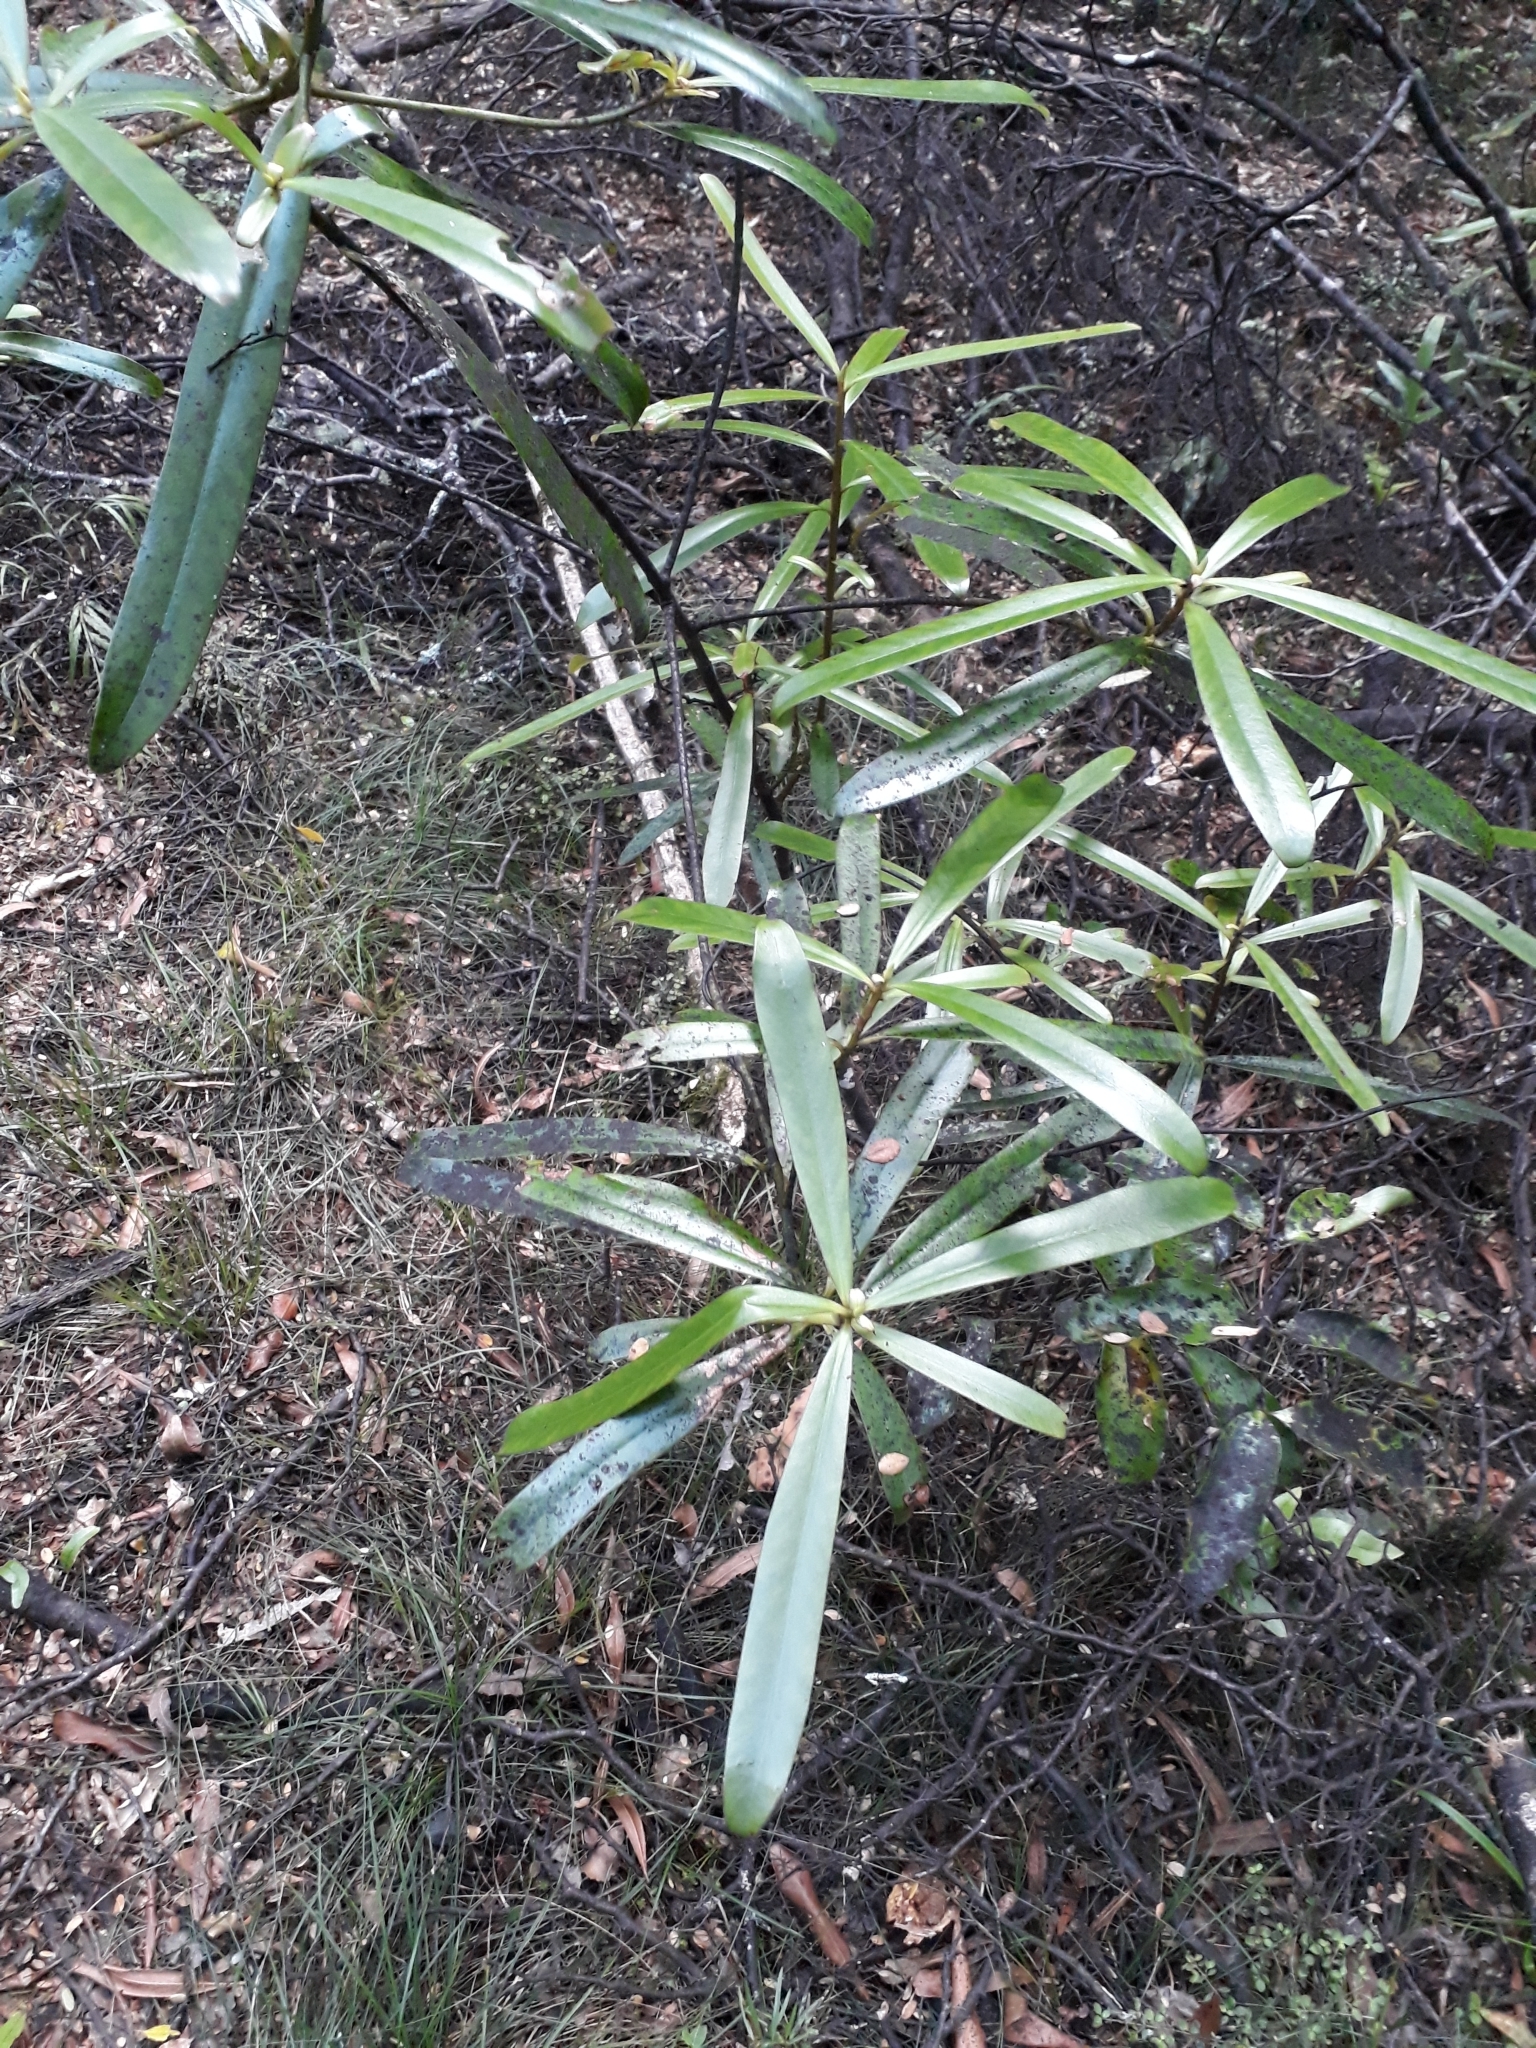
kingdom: Plantae
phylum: Tracheophyta
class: Magnoliopsida
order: Ericales
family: Primulaceae
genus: Myrsine
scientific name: Myrsine salicina
